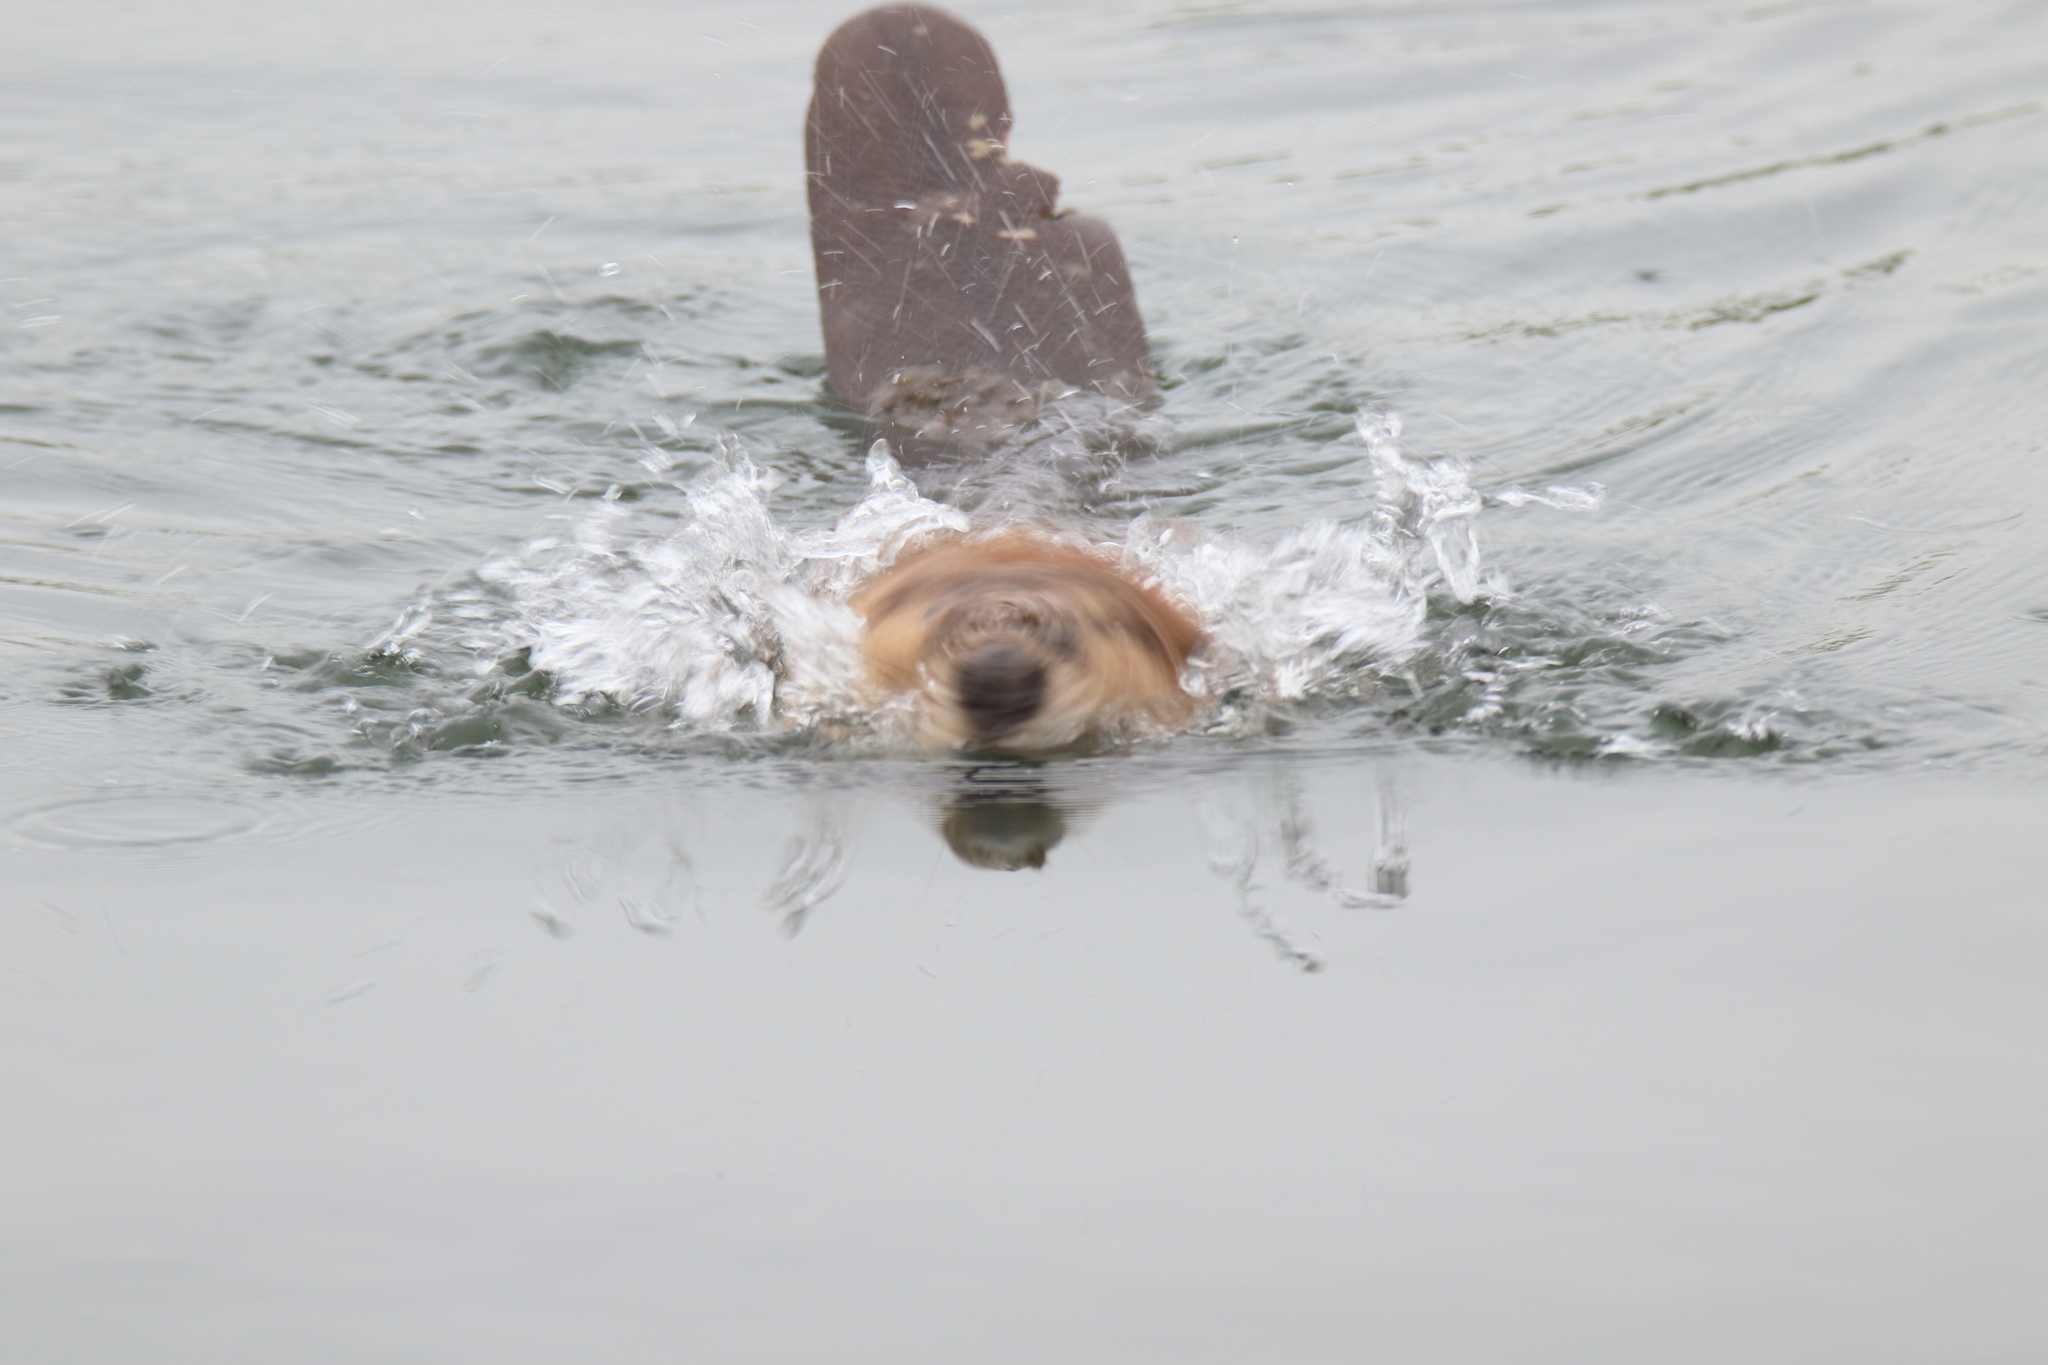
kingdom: Animalia
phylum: Chordata
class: Mammalia
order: Rodentia
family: Castoridae
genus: Castor
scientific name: Castor canadensis
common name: American beaver
